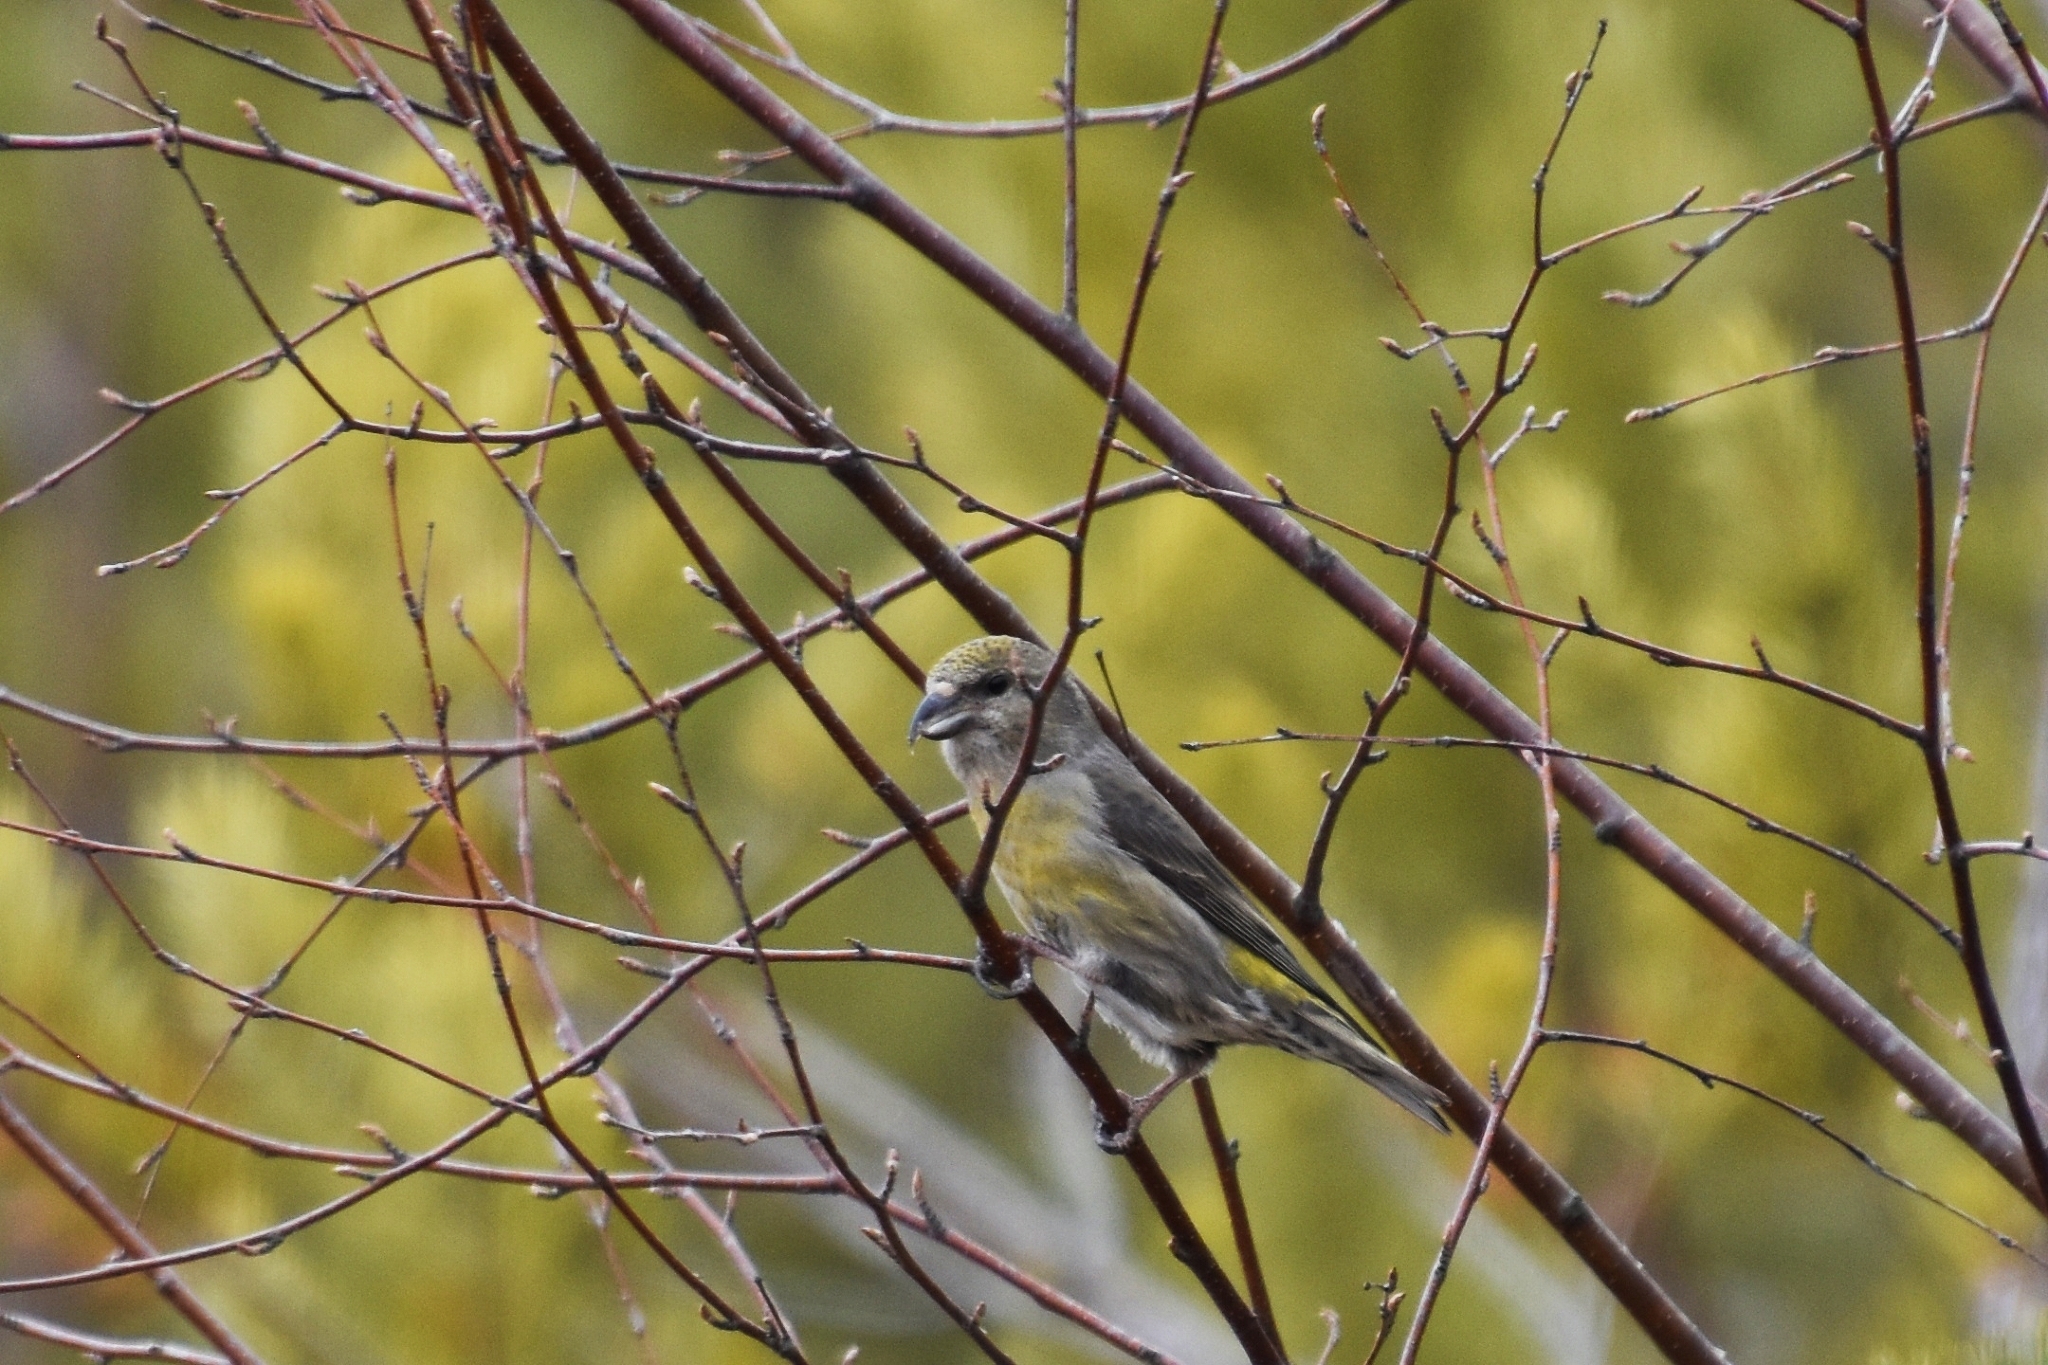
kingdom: Animalia
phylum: Chordata
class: Aves
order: Passeriformes
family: Fringillidae
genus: Loxia
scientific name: Loxia curvirostra
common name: Red crossbill
